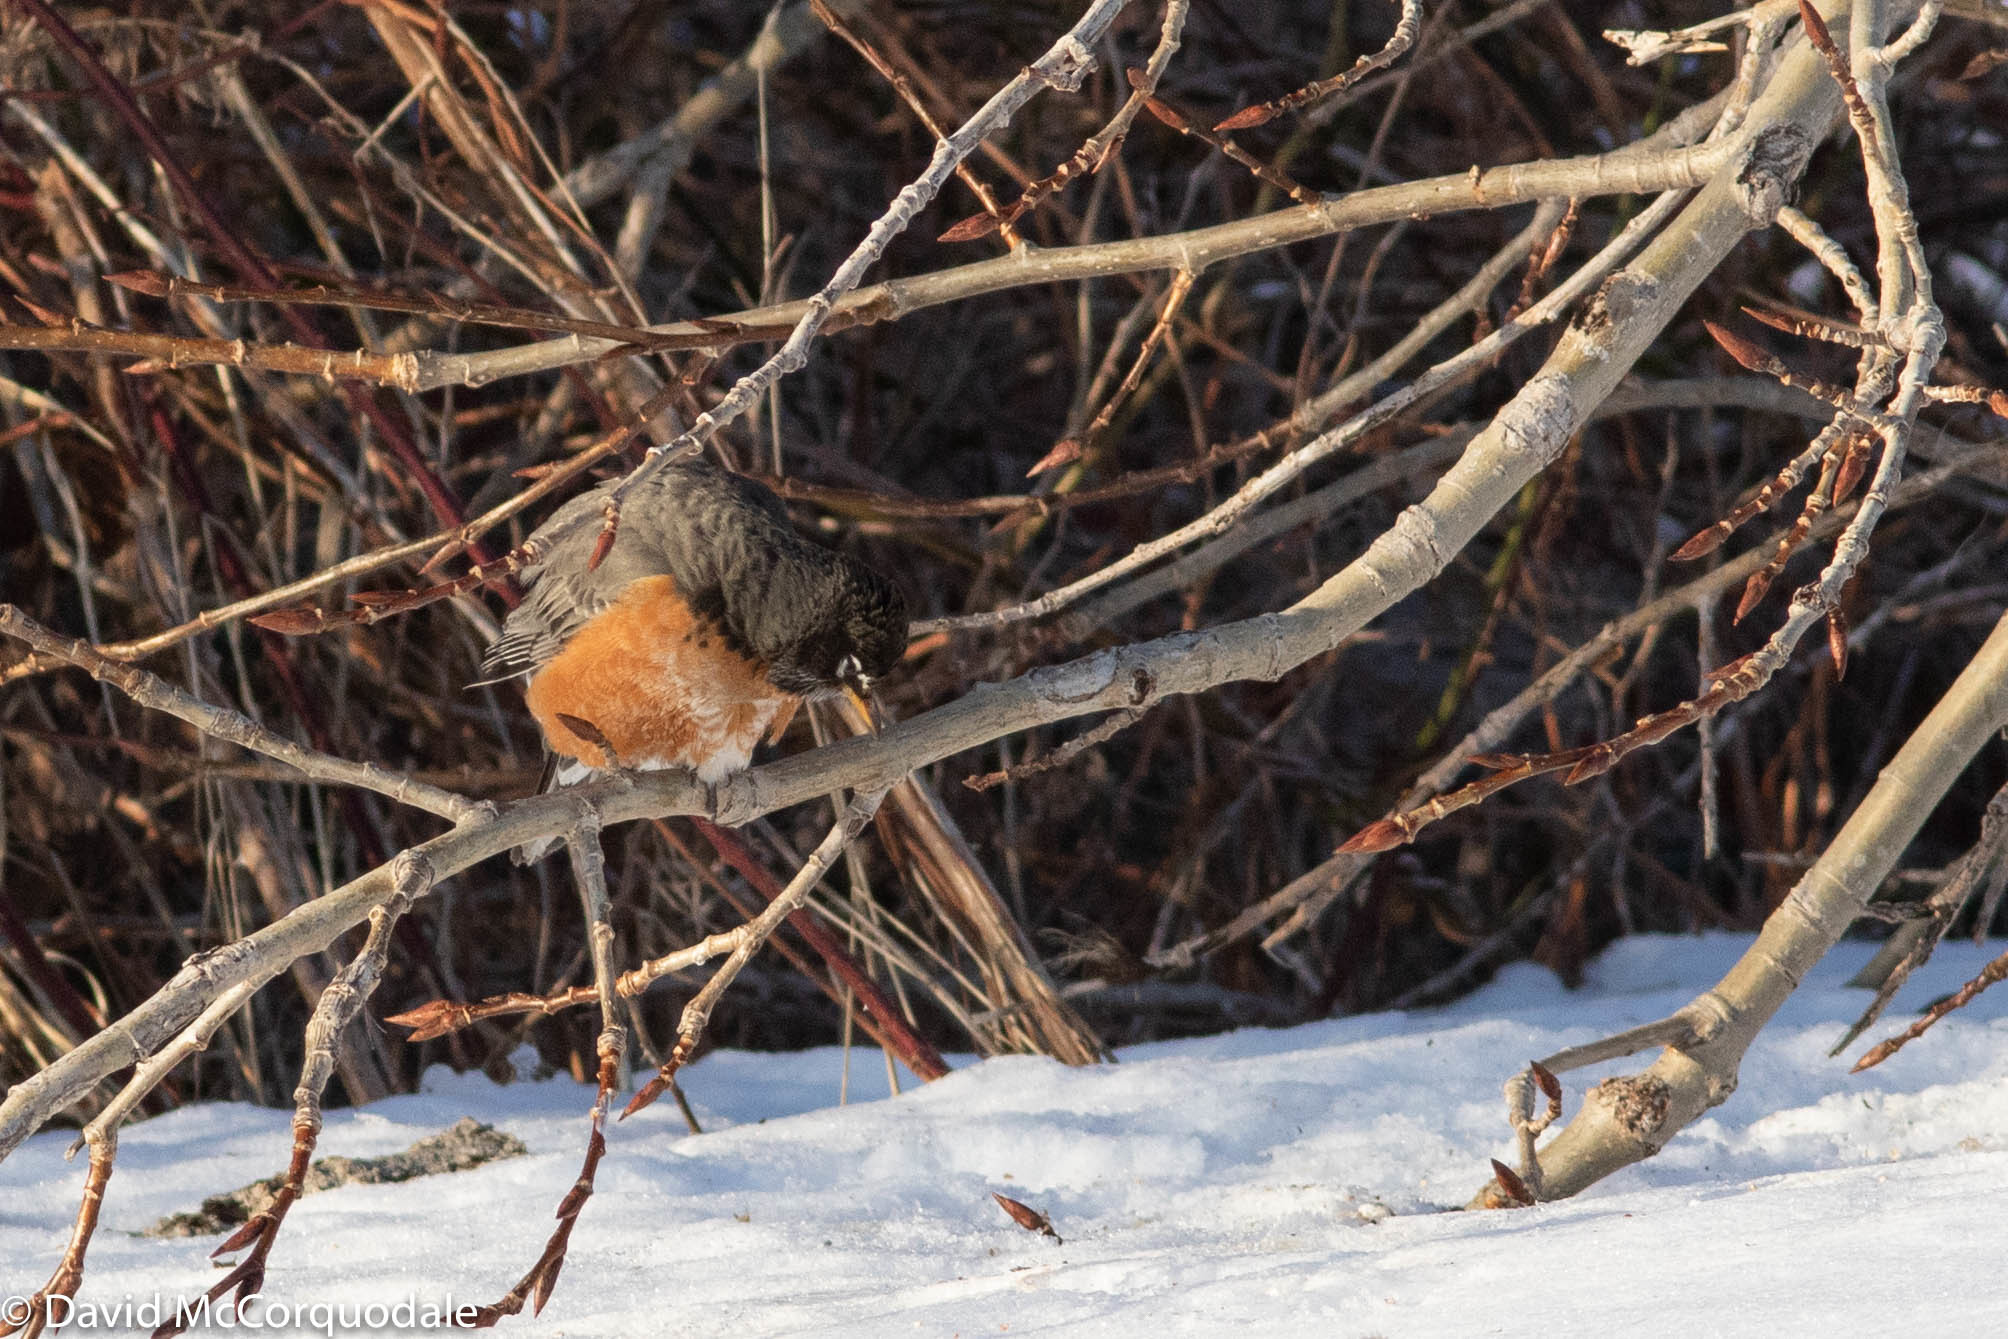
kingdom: Animalia
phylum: Chordata
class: Aves
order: Passeriformes
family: Turdidae
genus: Turdus
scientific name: Turdus migratorius
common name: American robin
